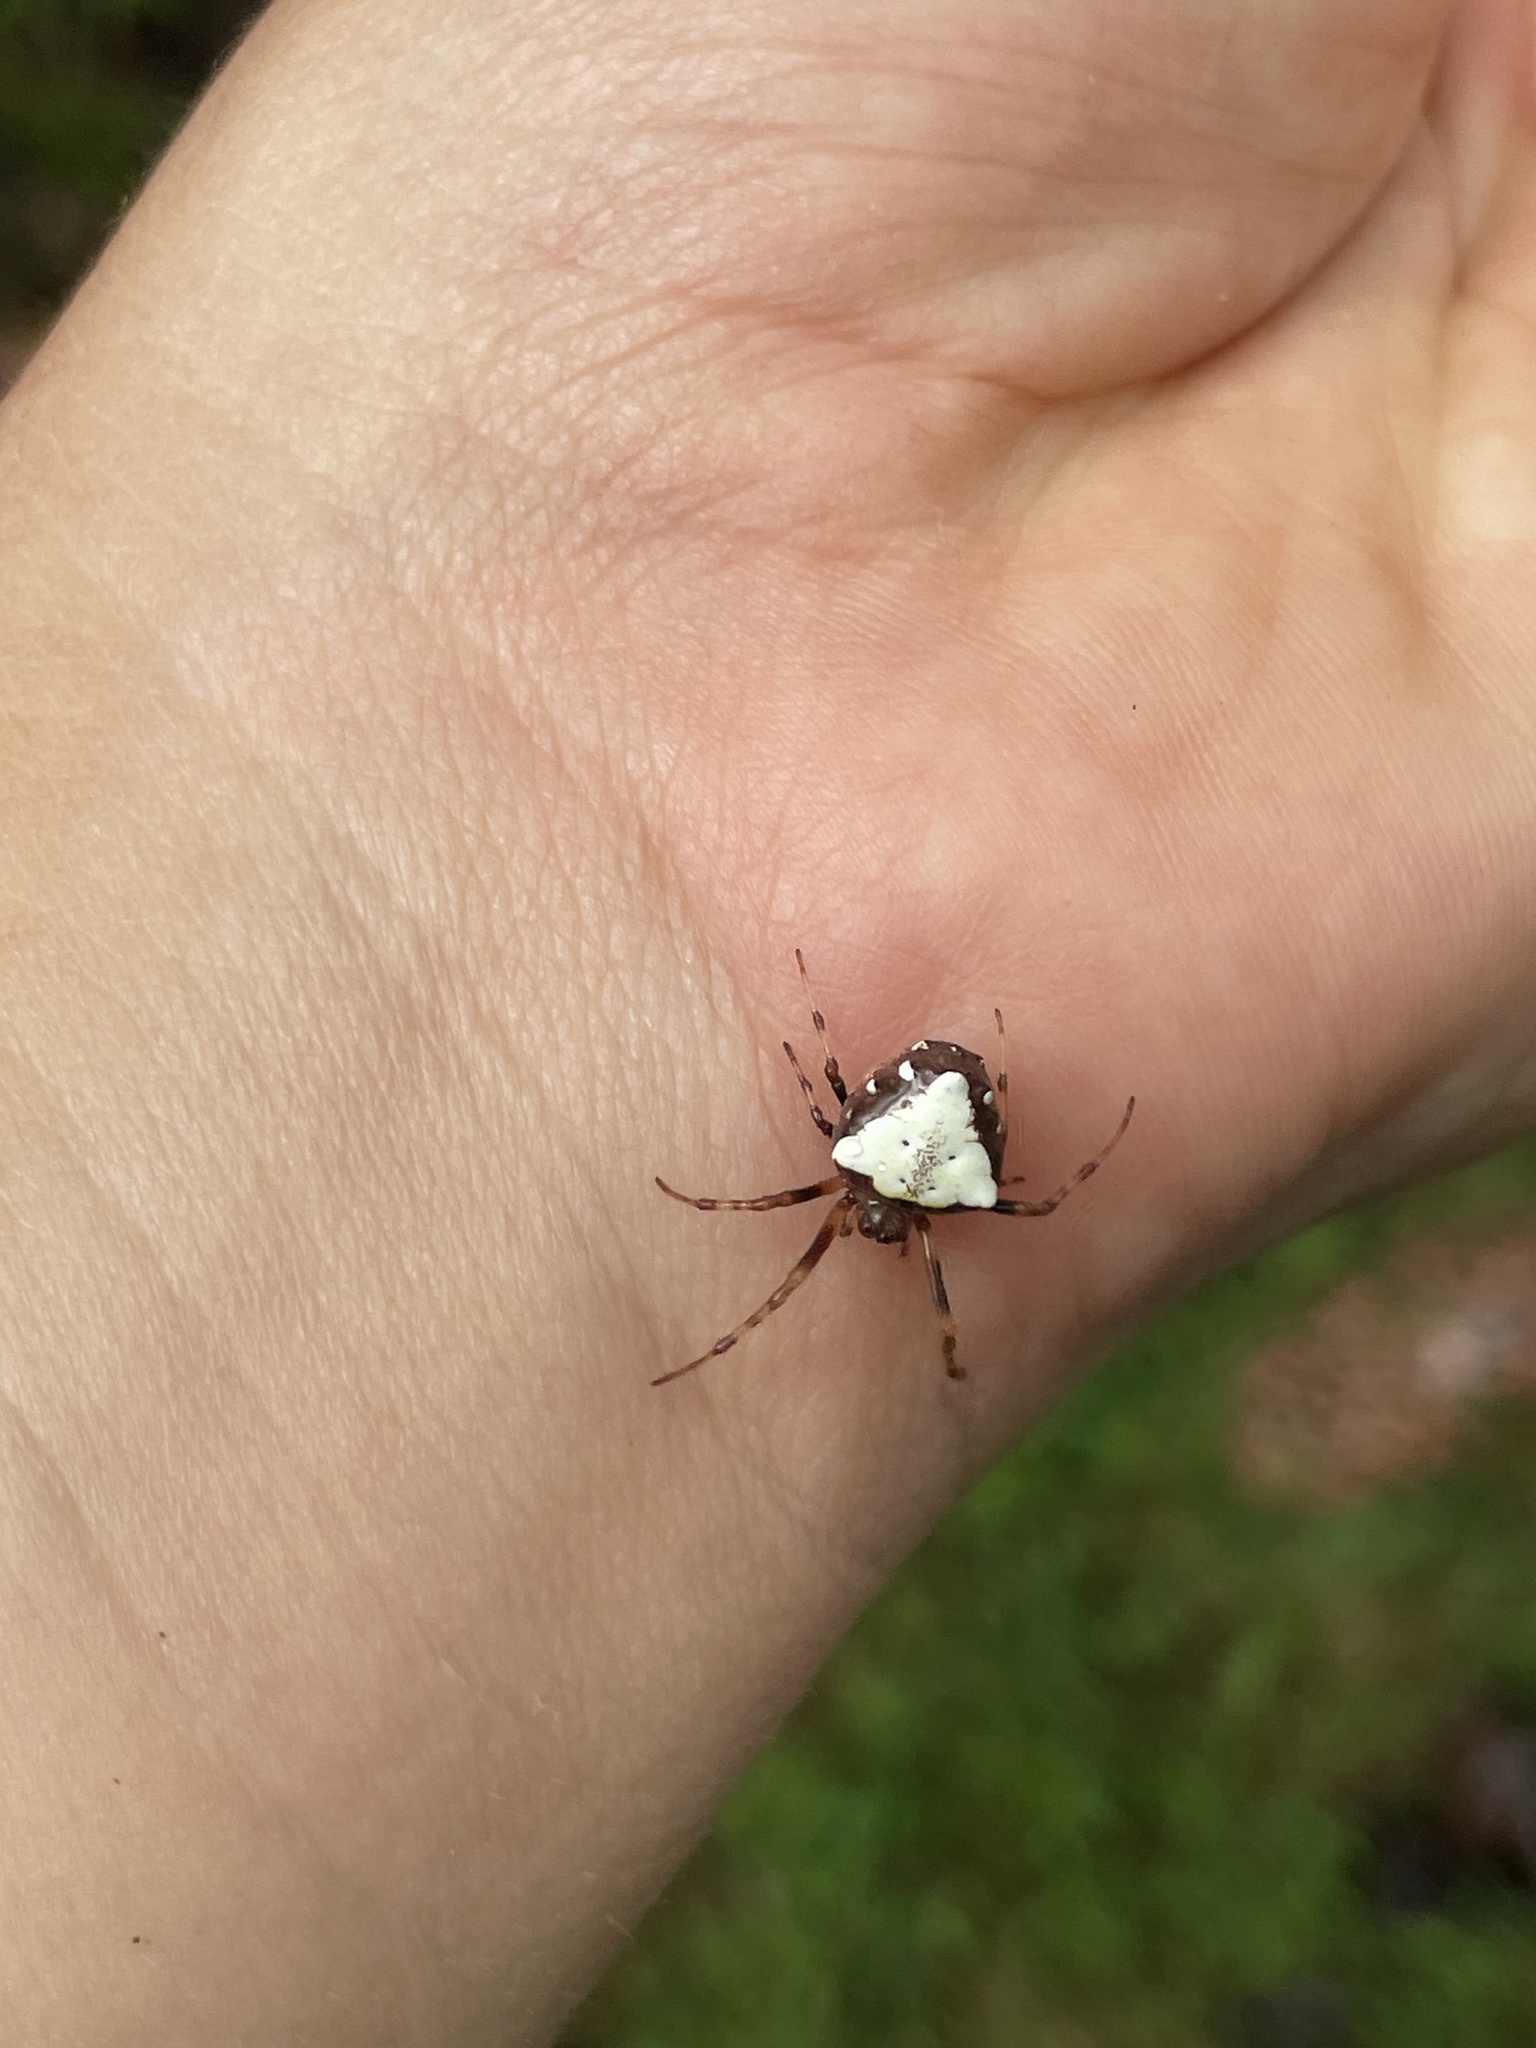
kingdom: Animalia
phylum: Arthropoda
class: Arachnida
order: Araneae
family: Araneidae
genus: Verrucosa
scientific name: Verrucosa arenata
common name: Orb weavers
